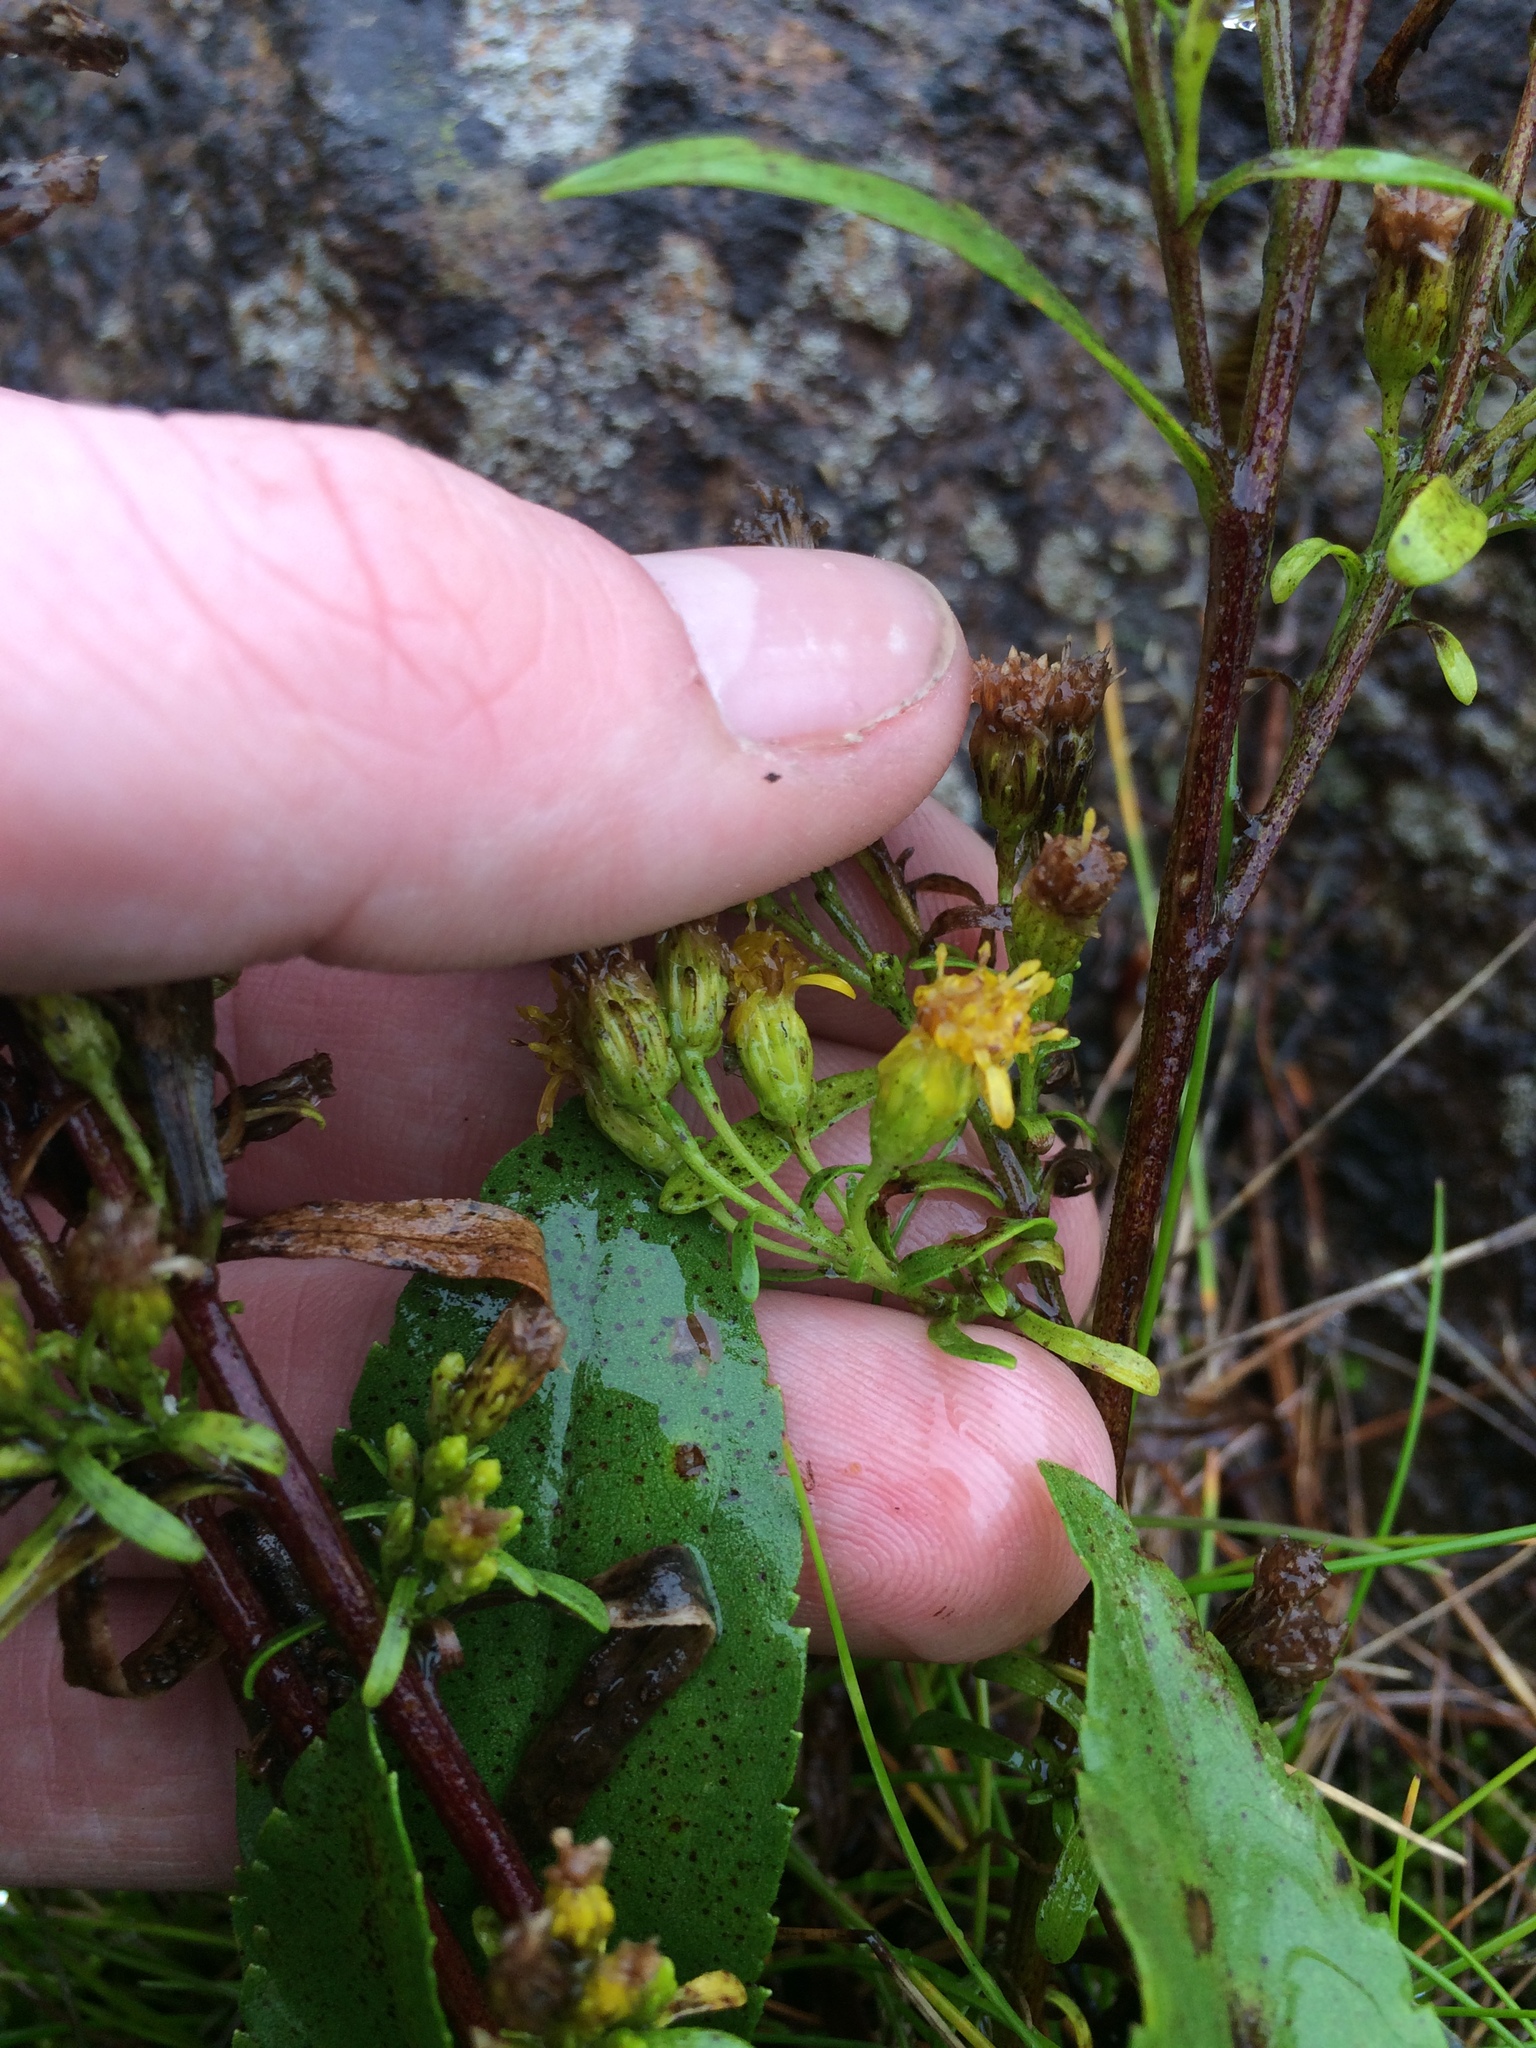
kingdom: Plantae
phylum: Tracheophyta
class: Magnoliopsida
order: Asterales
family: Asteraceae
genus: Solidago
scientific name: Solidago randii
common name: Rand's goldenrod
